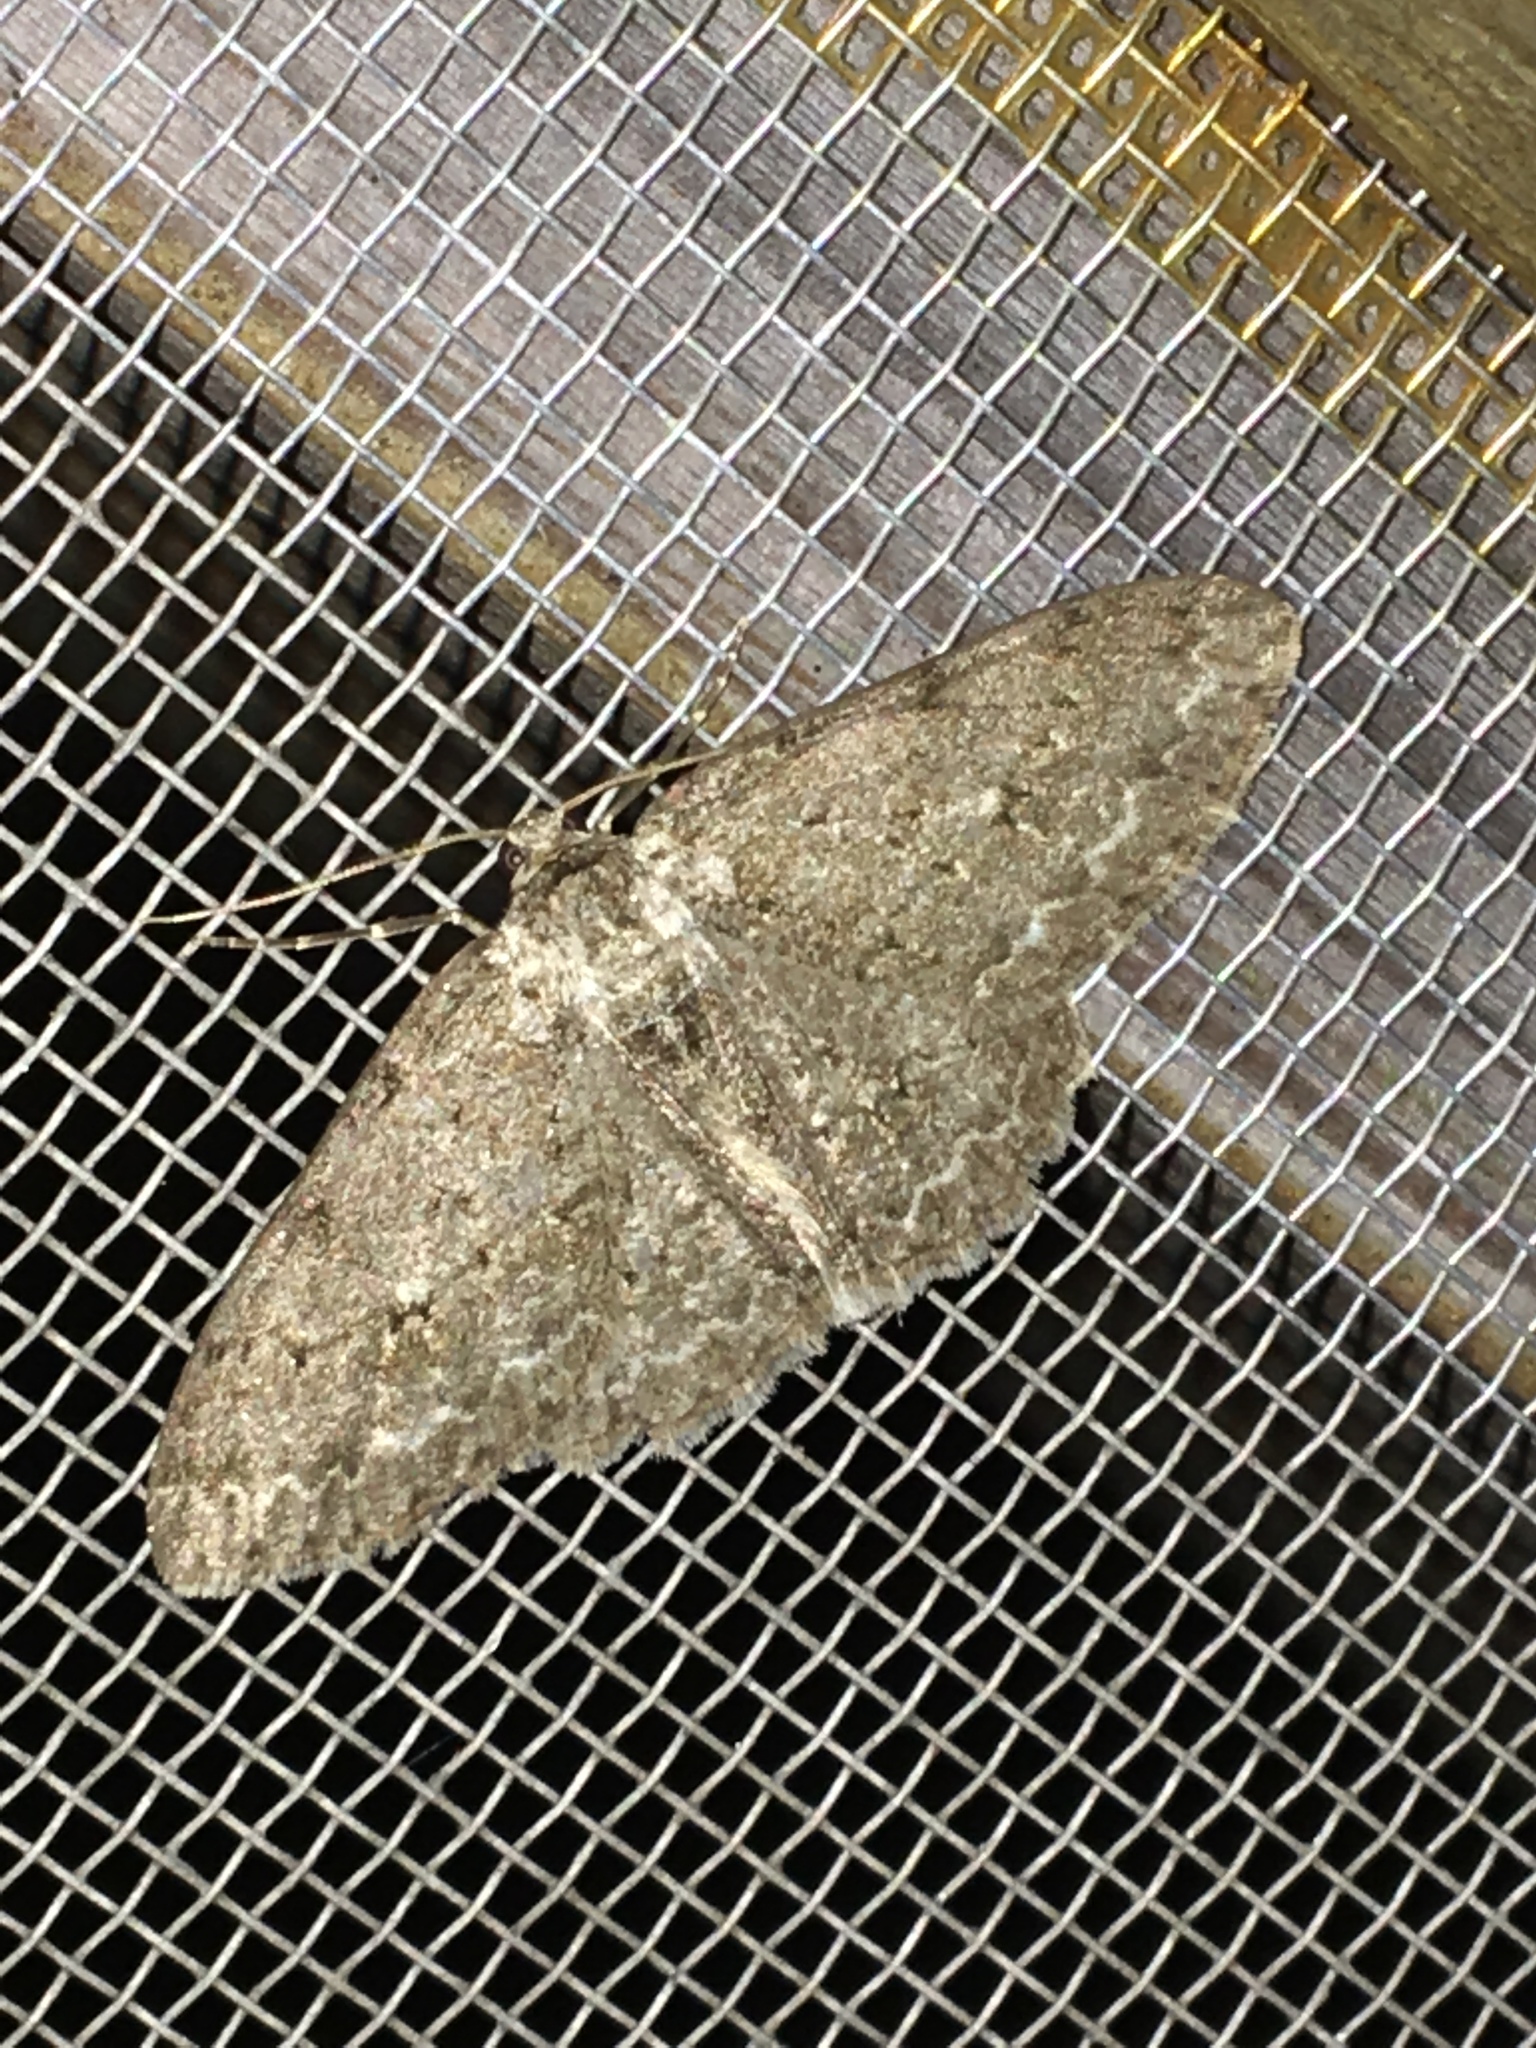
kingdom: Animalia
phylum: Arthropoda
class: Insecta
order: Lepidoptera
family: Geometridae
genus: Ectropis
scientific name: Ectropis crepuscularia
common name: Engrailed
